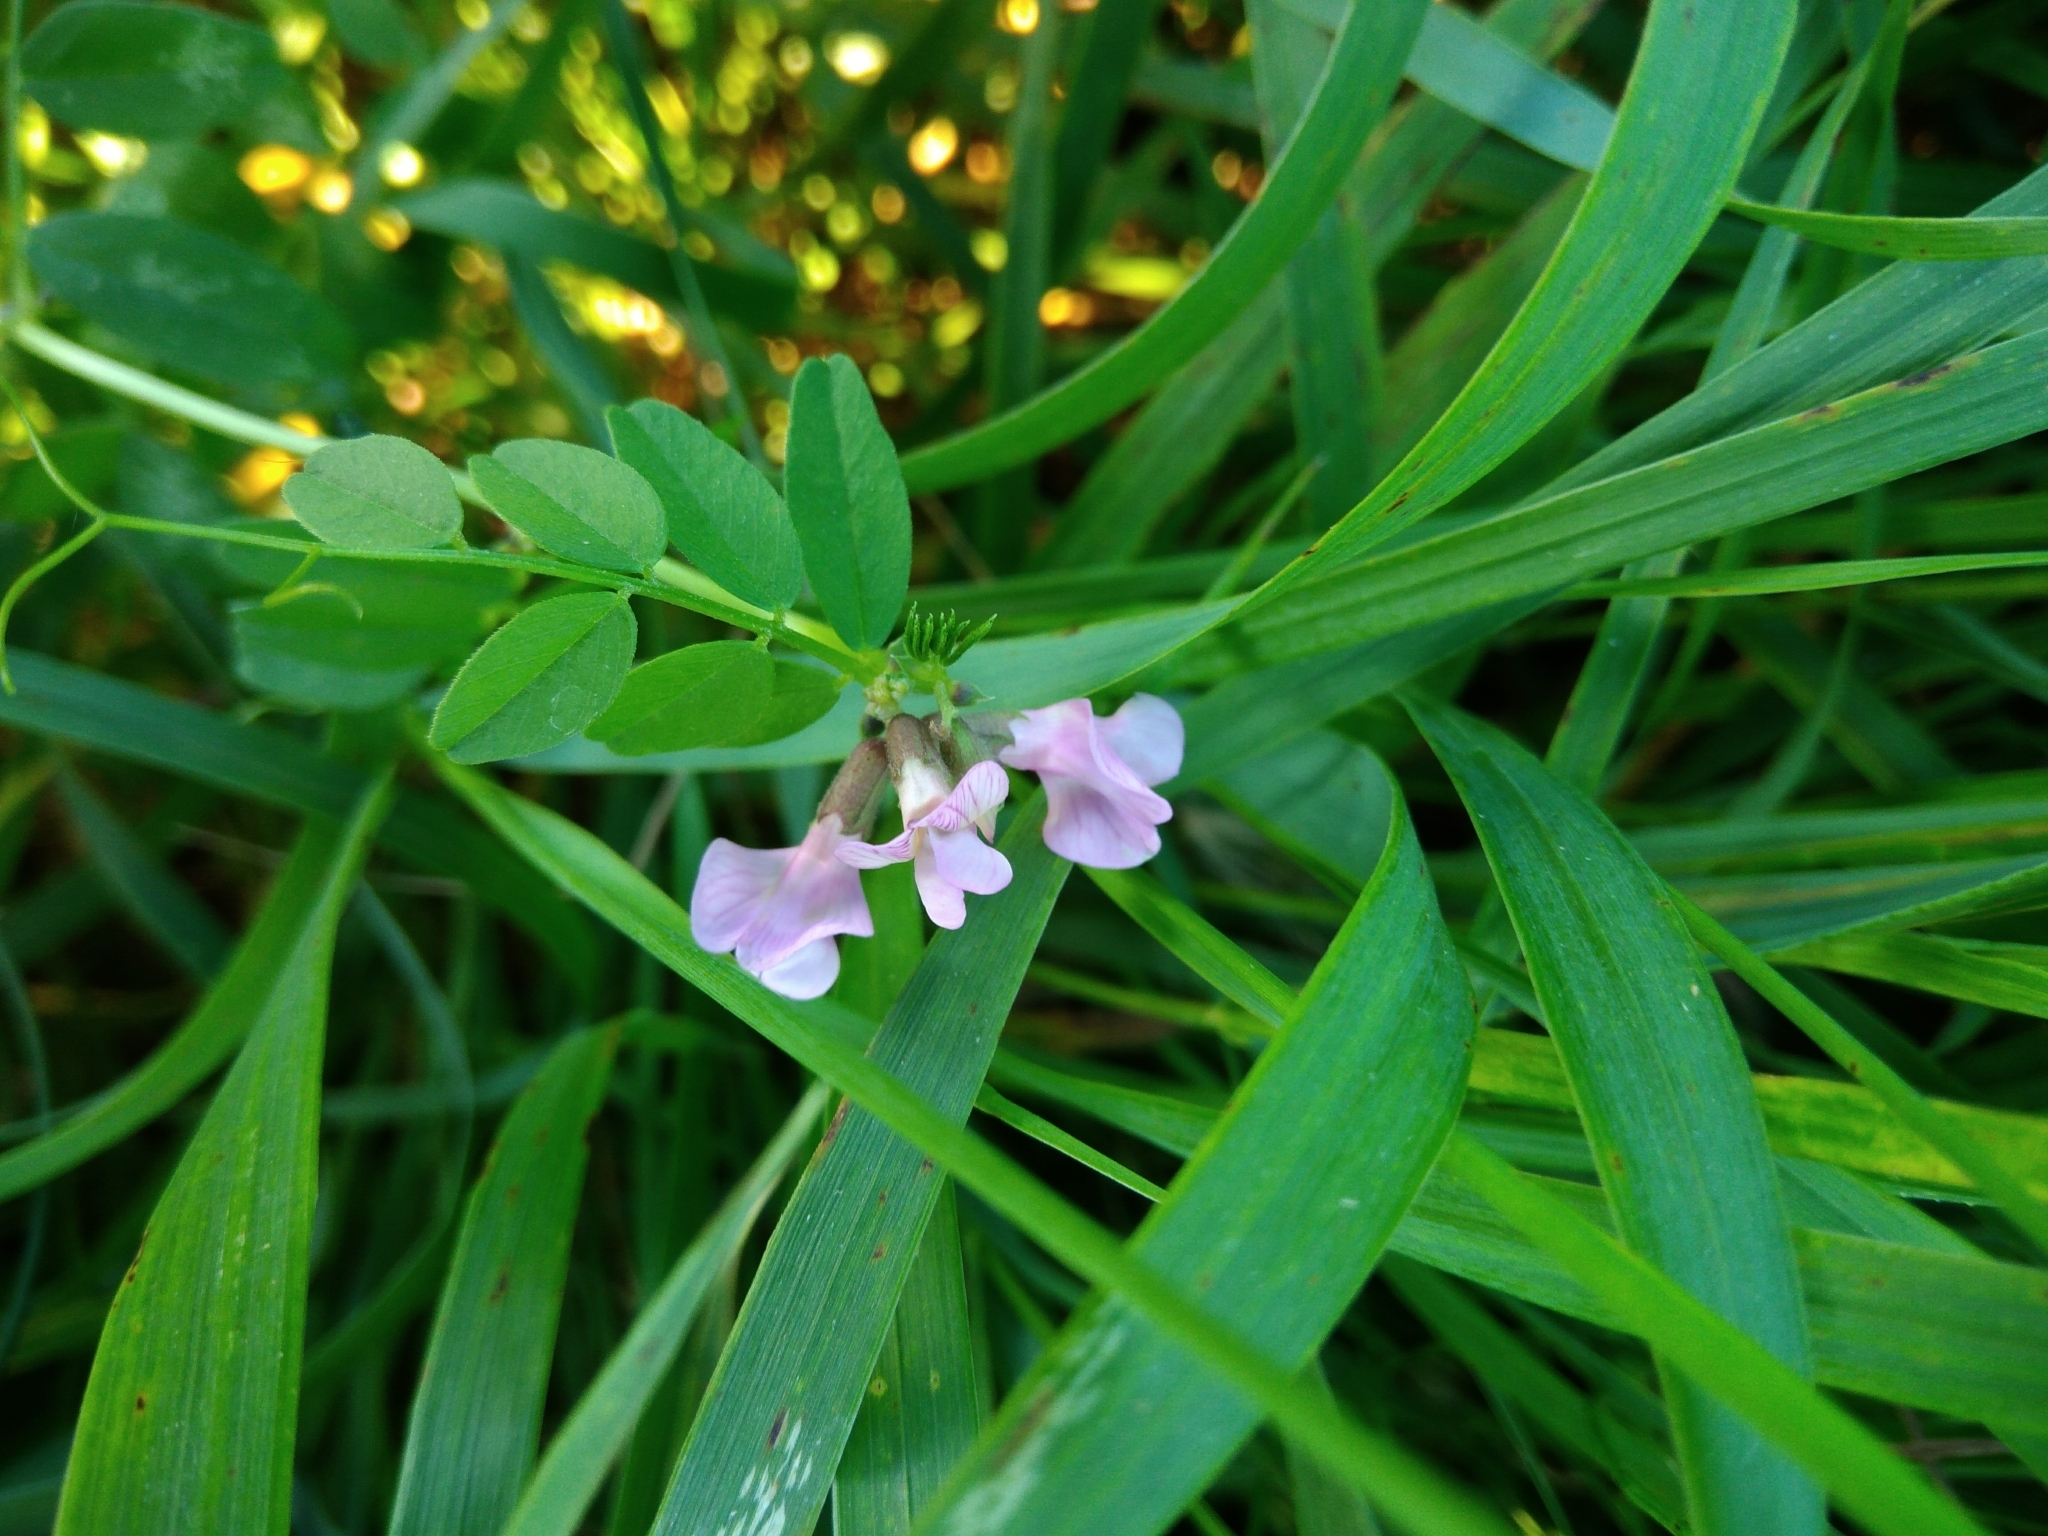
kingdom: Plantae
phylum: Tracheophyta
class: Magnoliopsida
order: Fabales
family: Fabaceae
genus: Vicia
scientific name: Vicia sepium
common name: Bush vetch
